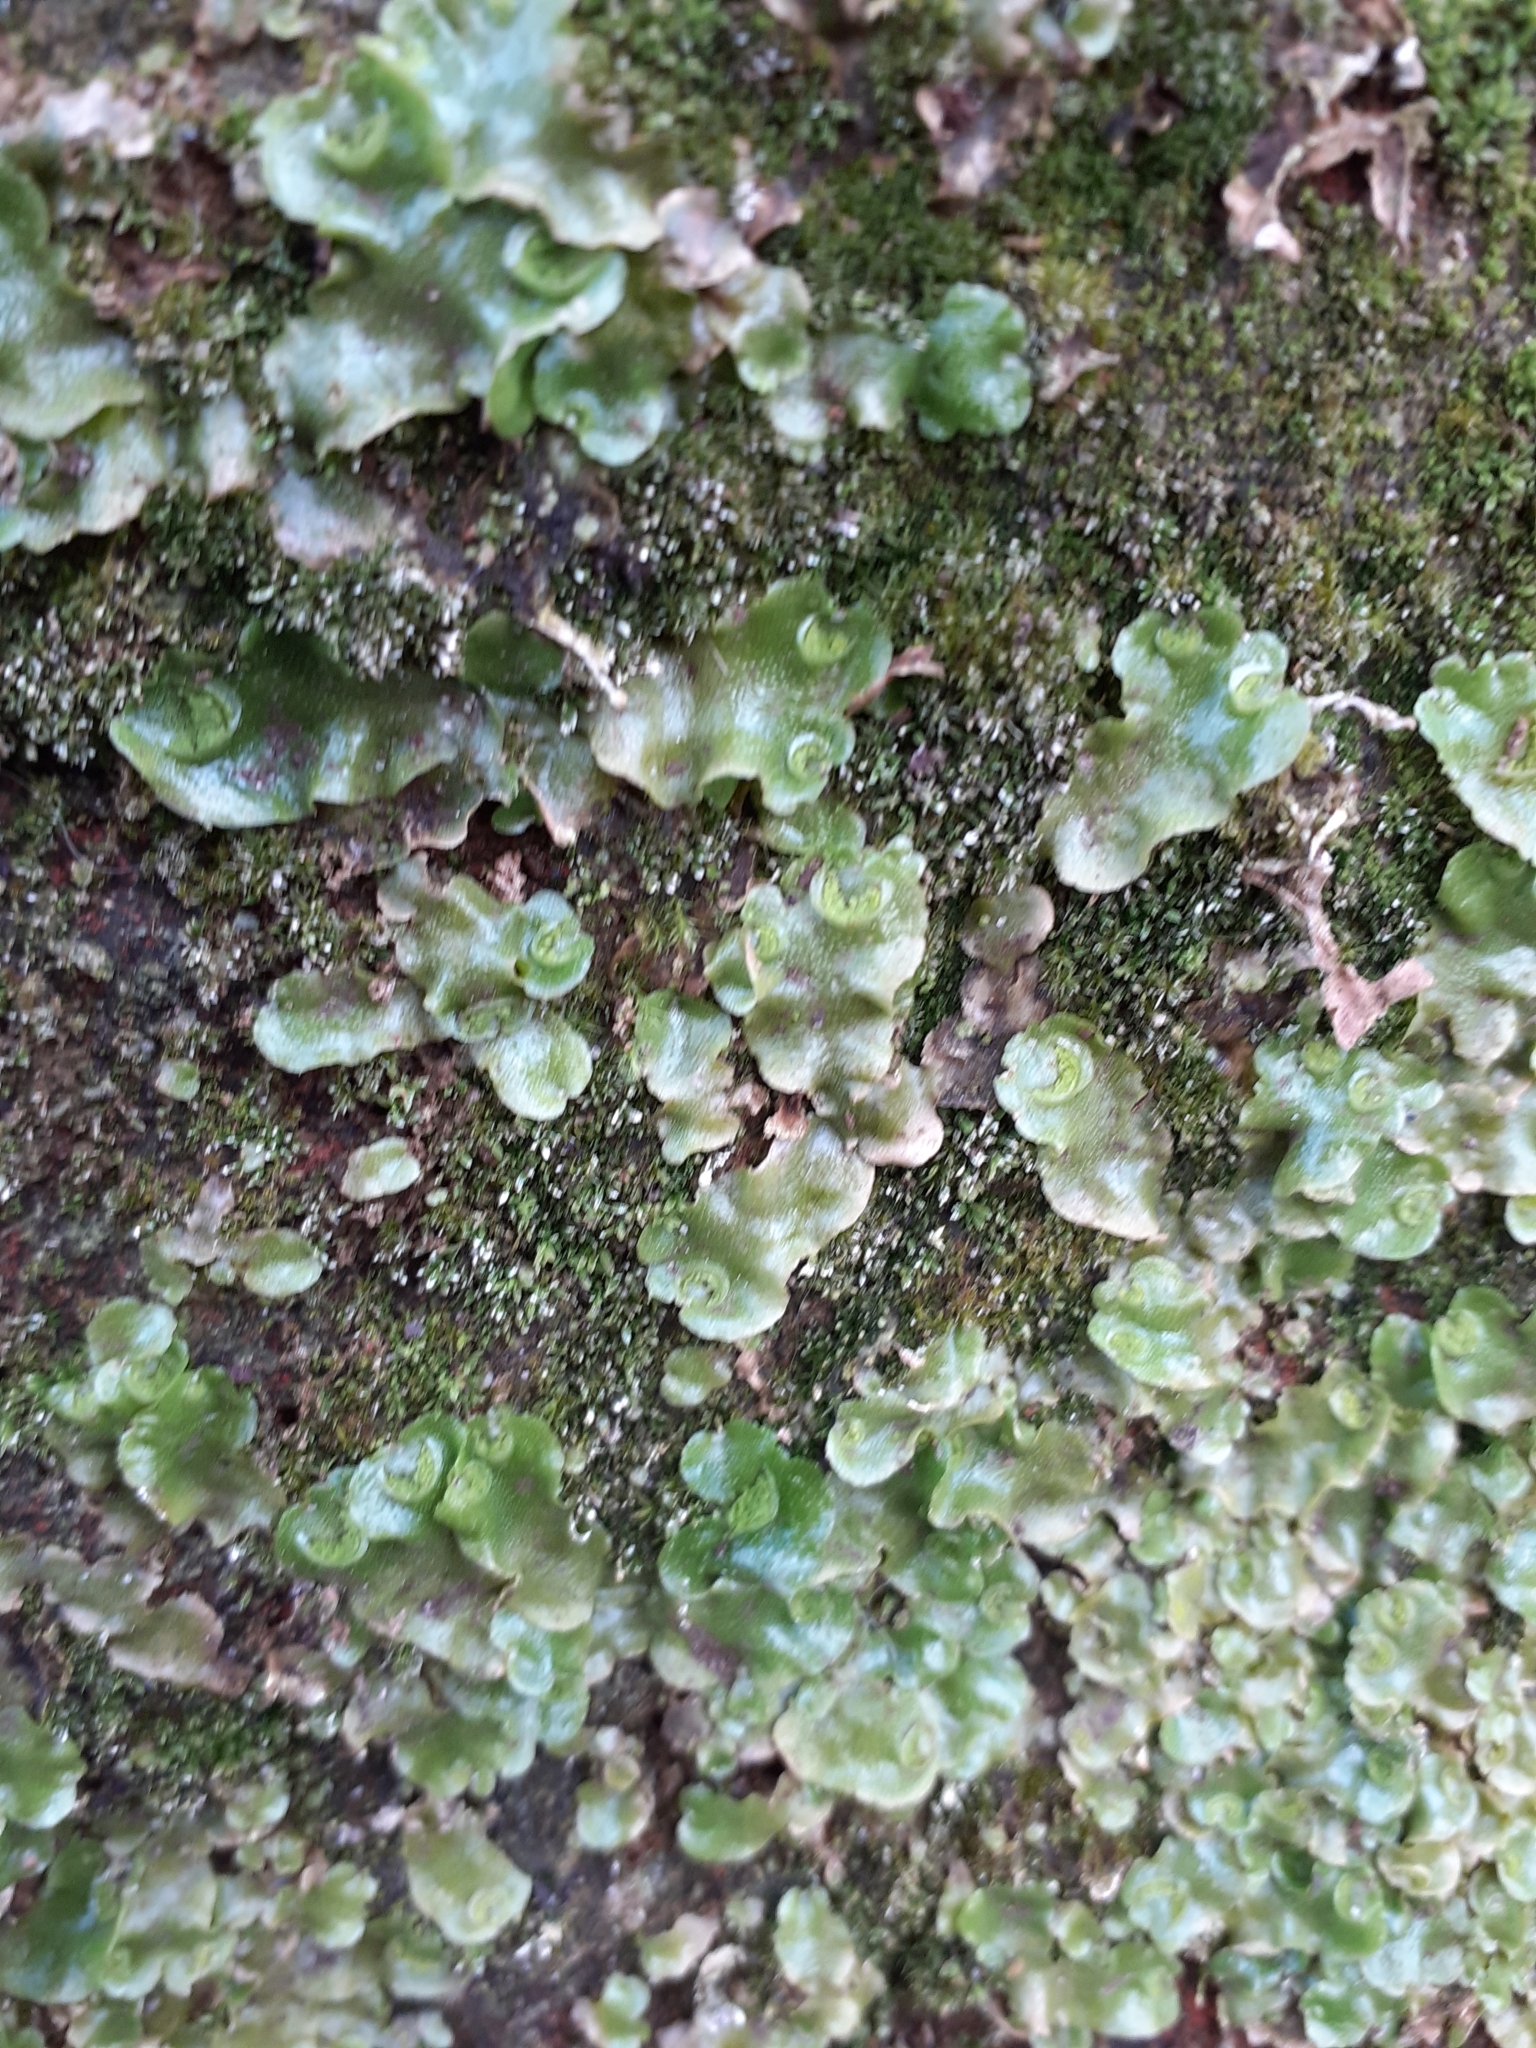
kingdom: Plantae
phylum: Marchantiophyta
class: Marchantiopsida
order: Lunulariales
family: Lunulariaceae
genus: Lunularia
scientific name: Lunularia cruciata
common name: Crescent-cup liverwort
